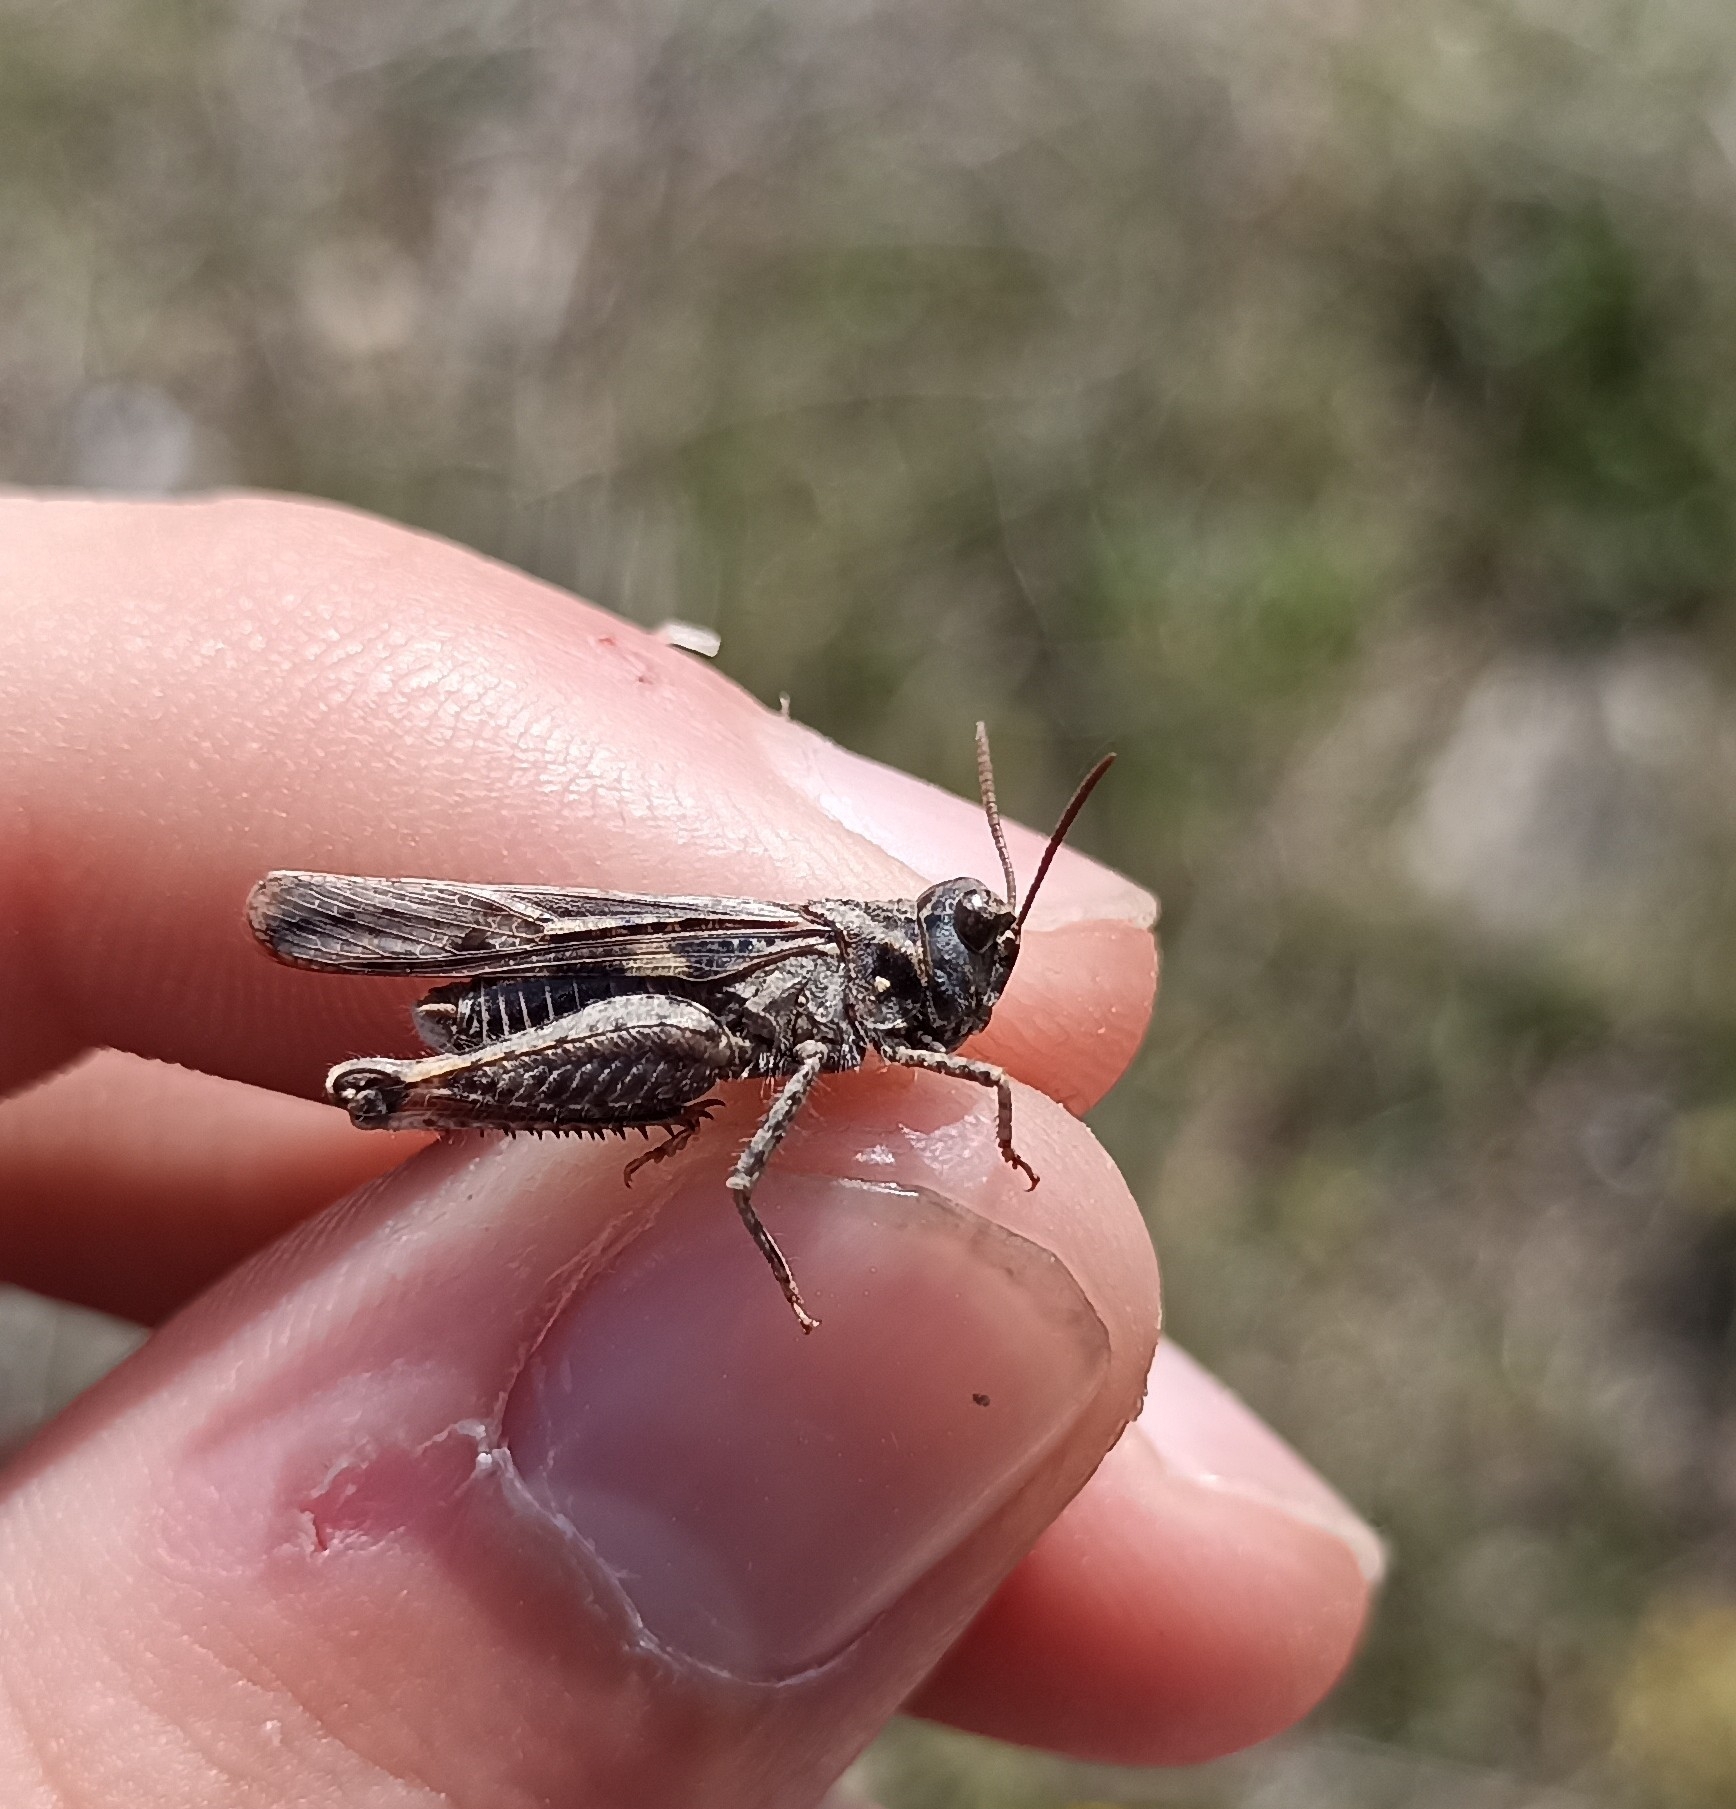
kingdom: Animalia
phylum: Arthropoda
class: Insecta
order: Orthoptera
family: Acrididae
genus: Acrotylus
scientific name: Acrotylus fischeri
